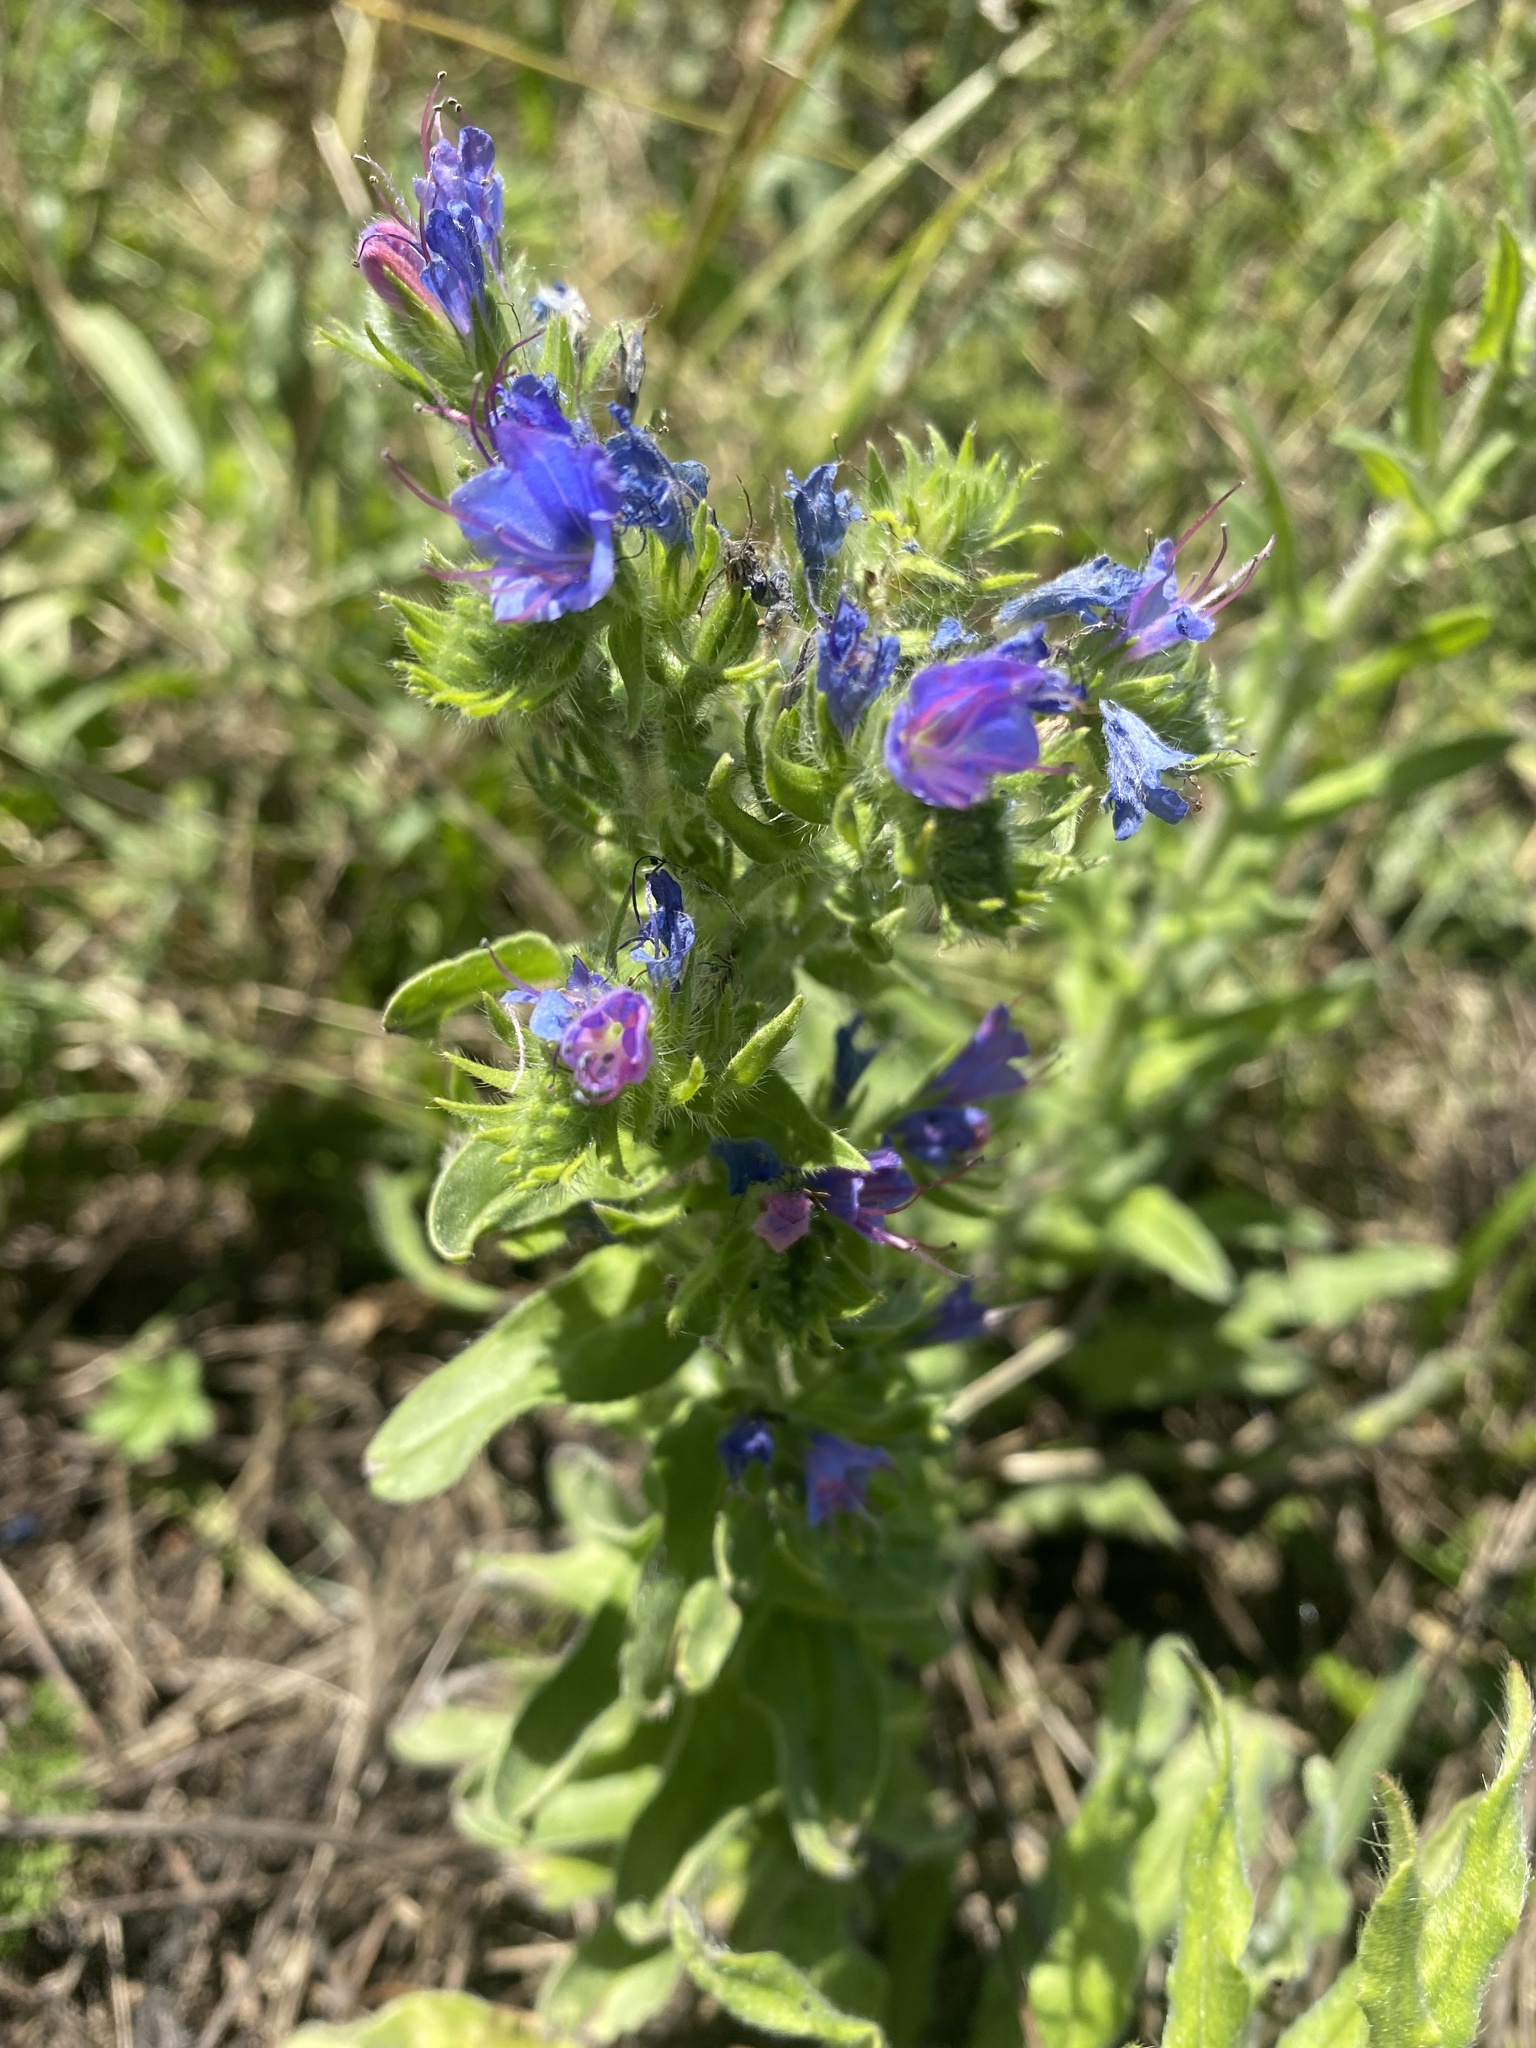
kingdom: Plantae
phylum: Tracheophyta
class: Magnoliopsida
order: Boraginales
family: Boraginaceae
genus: Echium
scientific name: Echium vulgare
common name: Common viper's bugloss
